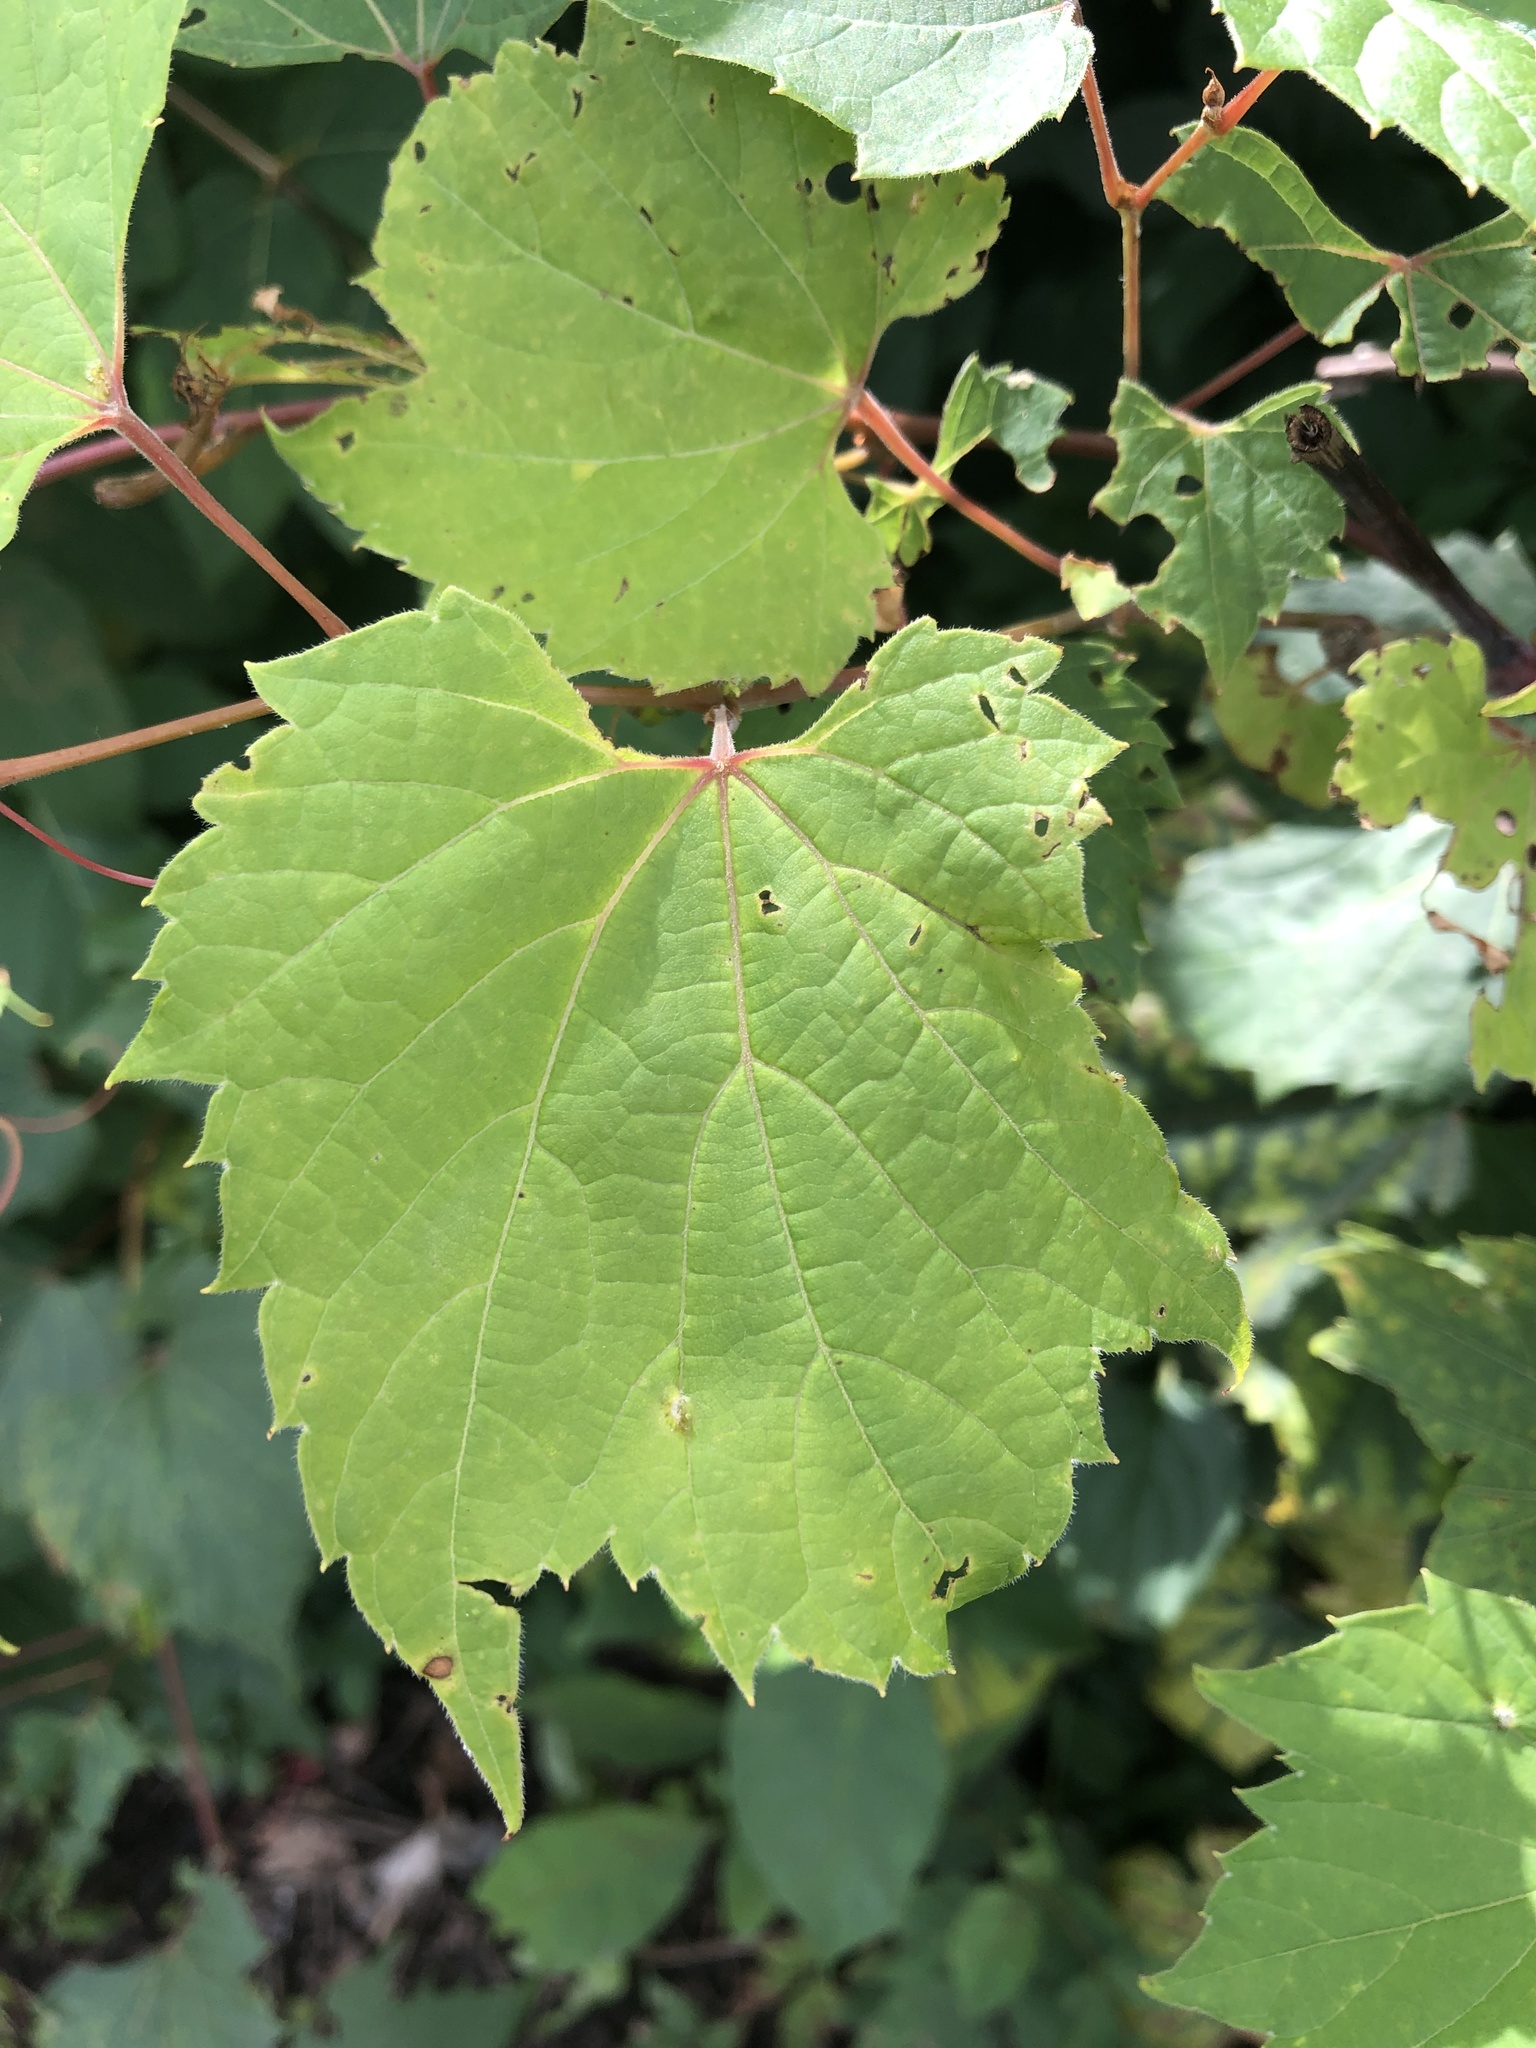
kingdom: Plantae
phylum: Tracheophyta
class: Magnoliopsida
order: Vitales
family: Vitaceae
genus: Vitis
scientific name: Vitis riparia
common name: Frost grape
